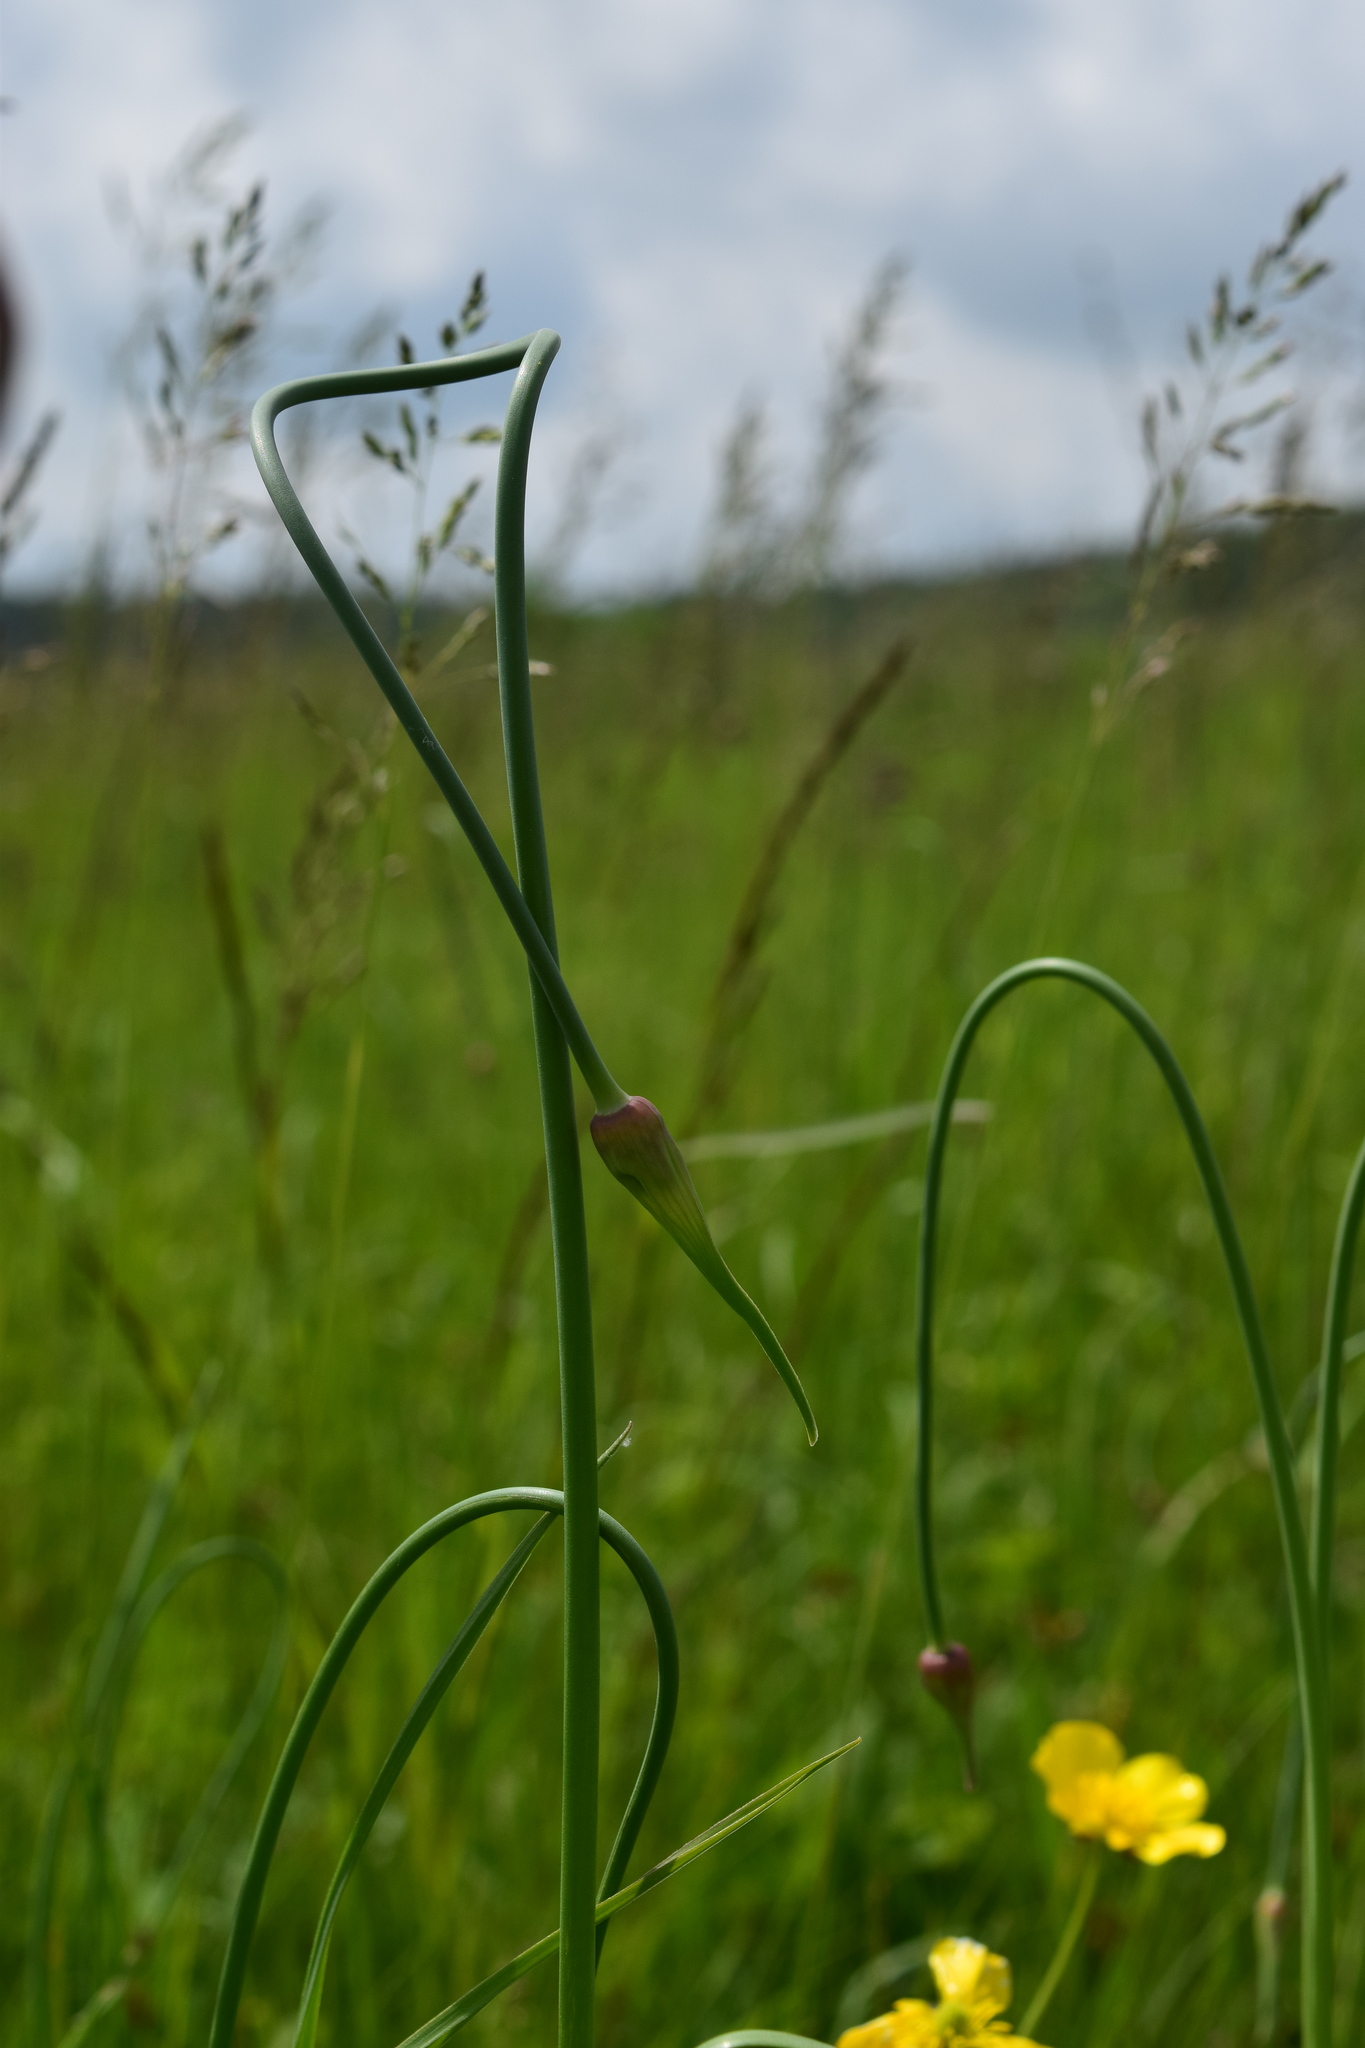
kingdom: Plantae
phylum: Tracheophyta
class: Liliopsida
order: Asparagales
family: Amaryllidaceae
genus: Allium
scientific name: Allium rotundum
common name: Sand leek
